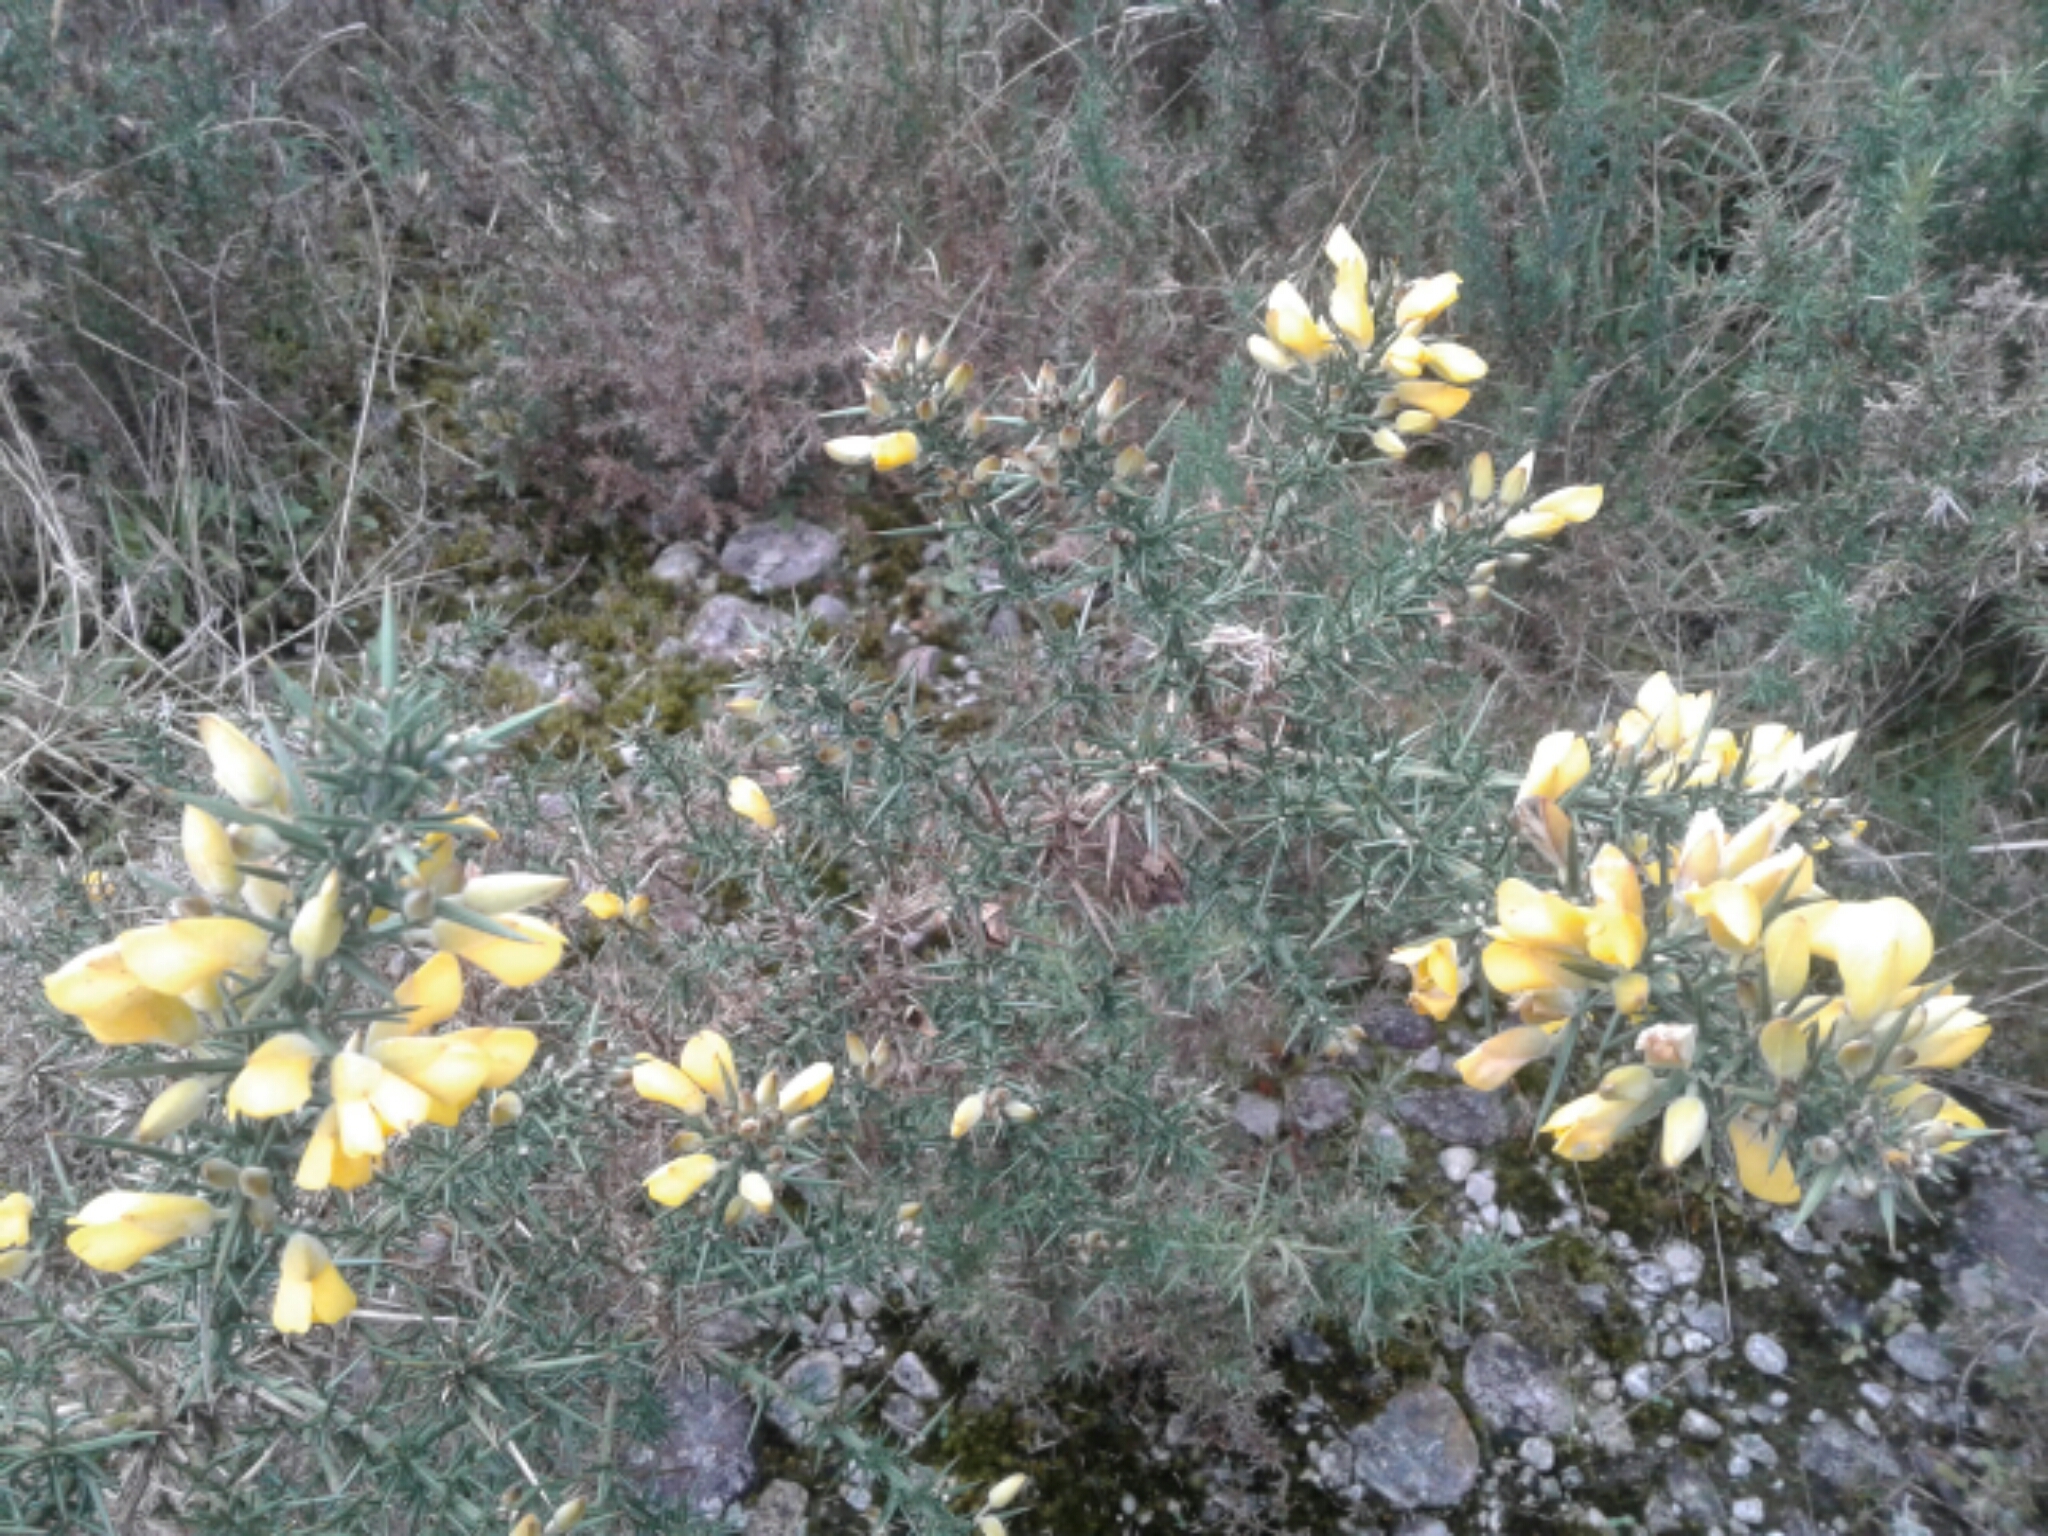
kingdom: Plantae
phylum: Tracheophyta
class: Magnoliopsida
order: Fabales
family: Fabaceae
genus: Ulex
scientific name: Ulex europaeus
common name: Common gorse
